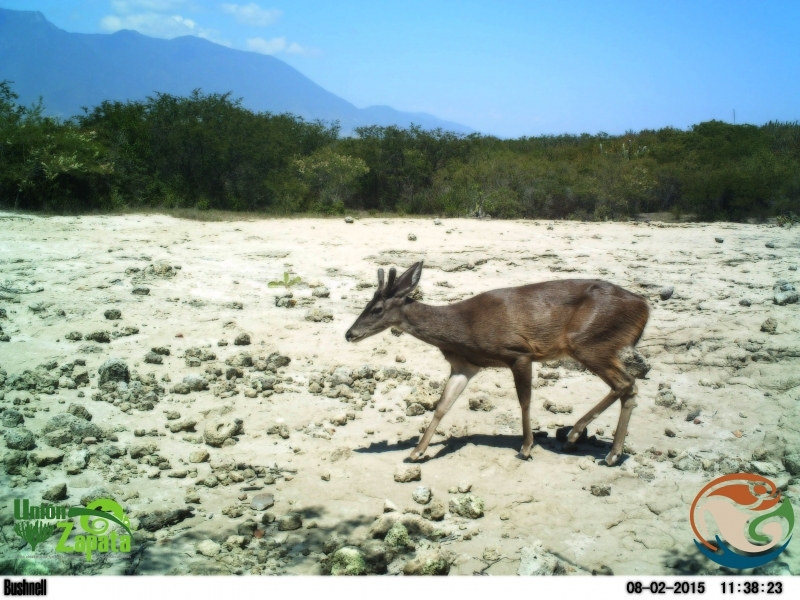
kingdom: Animalia
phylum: Chordata
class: Mammalia
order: Artiodactyla
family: Cervidae
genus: Odocoileus
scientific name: Odocoileus virginianus
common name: White-tailed deer
